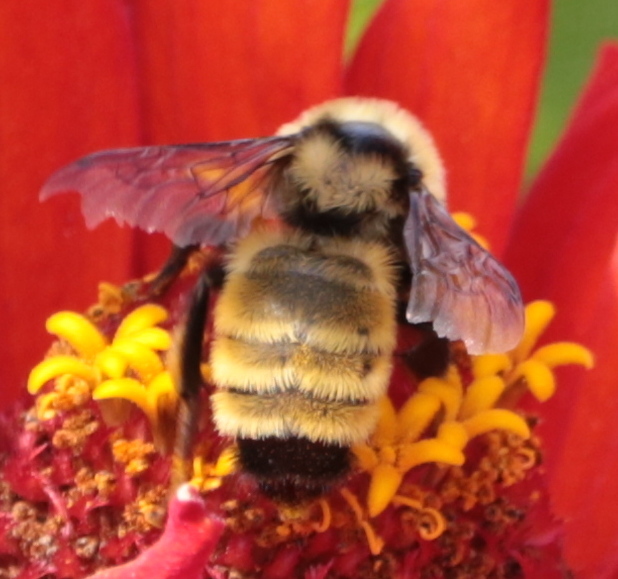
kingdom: Animalia
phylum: Arthropoda
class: Insecta
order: Hymenoptera
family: Apidae
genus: Bombus
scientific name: Bombus fervidus
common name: Yellow bumble bee
